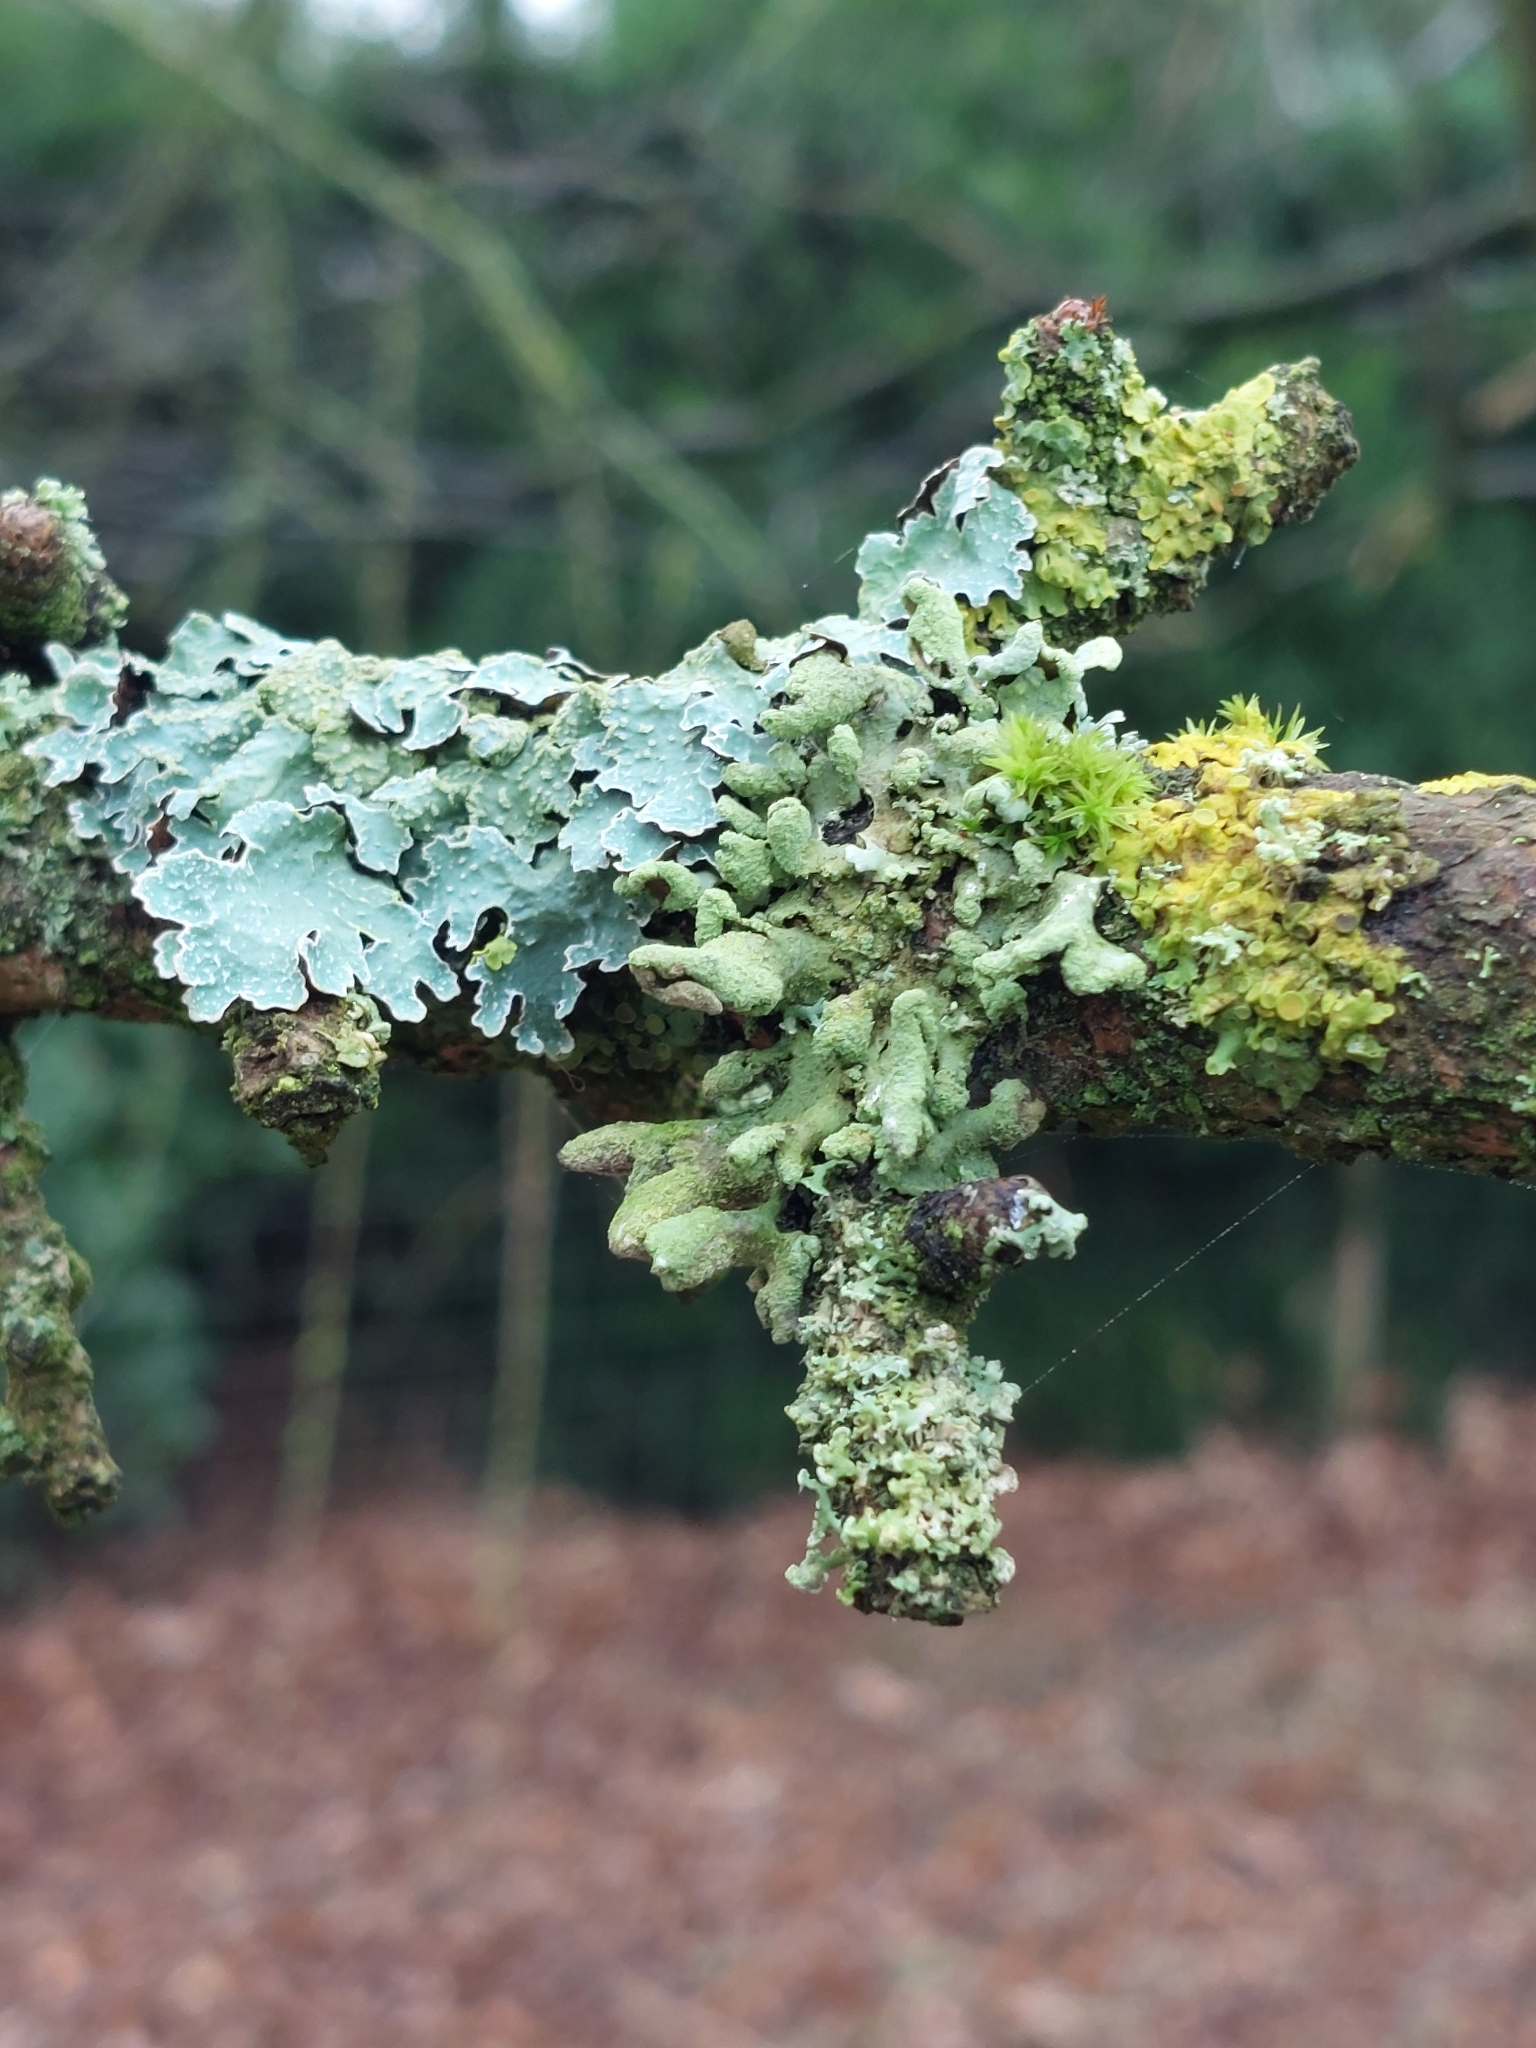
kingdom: Fungi
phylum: Ascomycota
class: Lecanoromycetes
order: Lecanorales
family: Parmeliaceae
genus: Hypotrachyna
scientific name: Hypotrachyna revoluta
